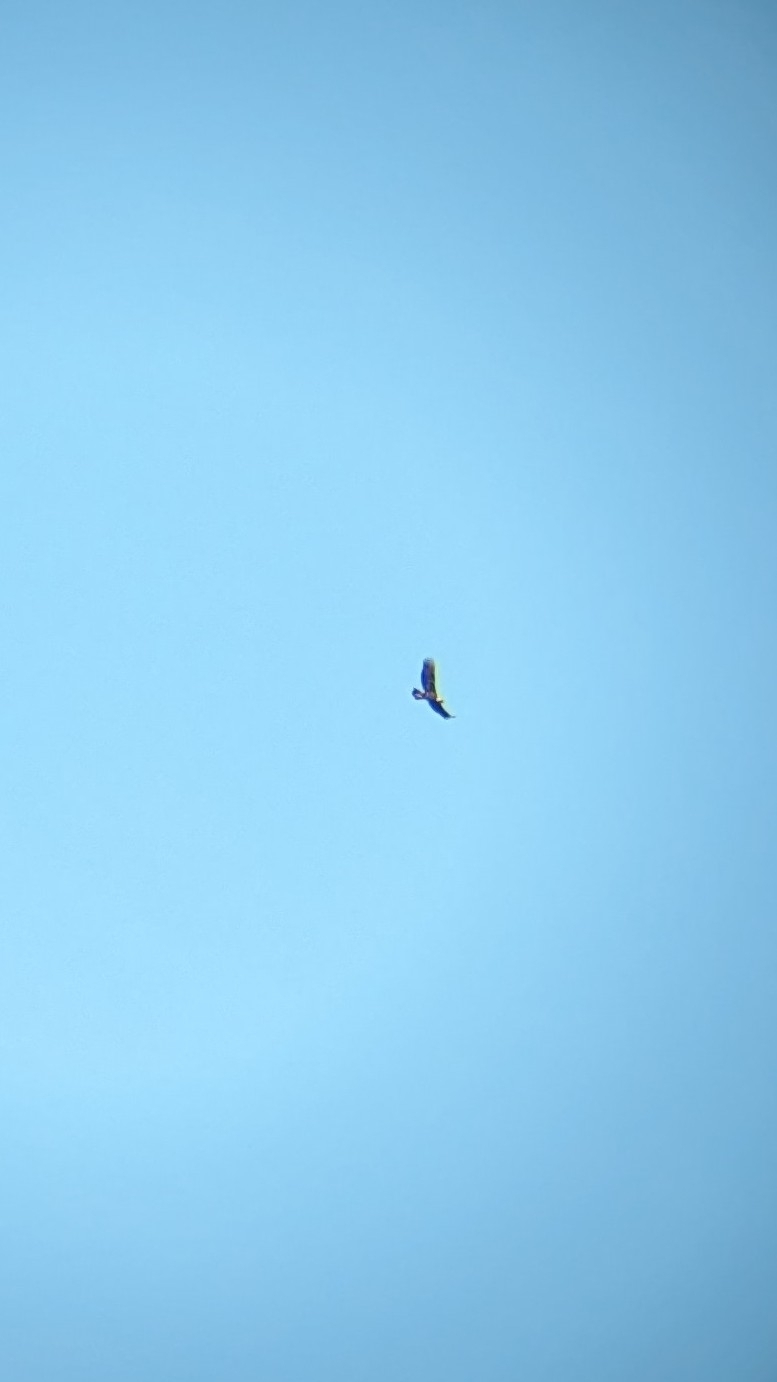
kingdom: Animalia
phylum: Chordata
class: Aves
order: Accipitriformes
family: Accipitridae
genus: Aquila
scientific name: Aquila chrysaetos
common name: Golden eagle
